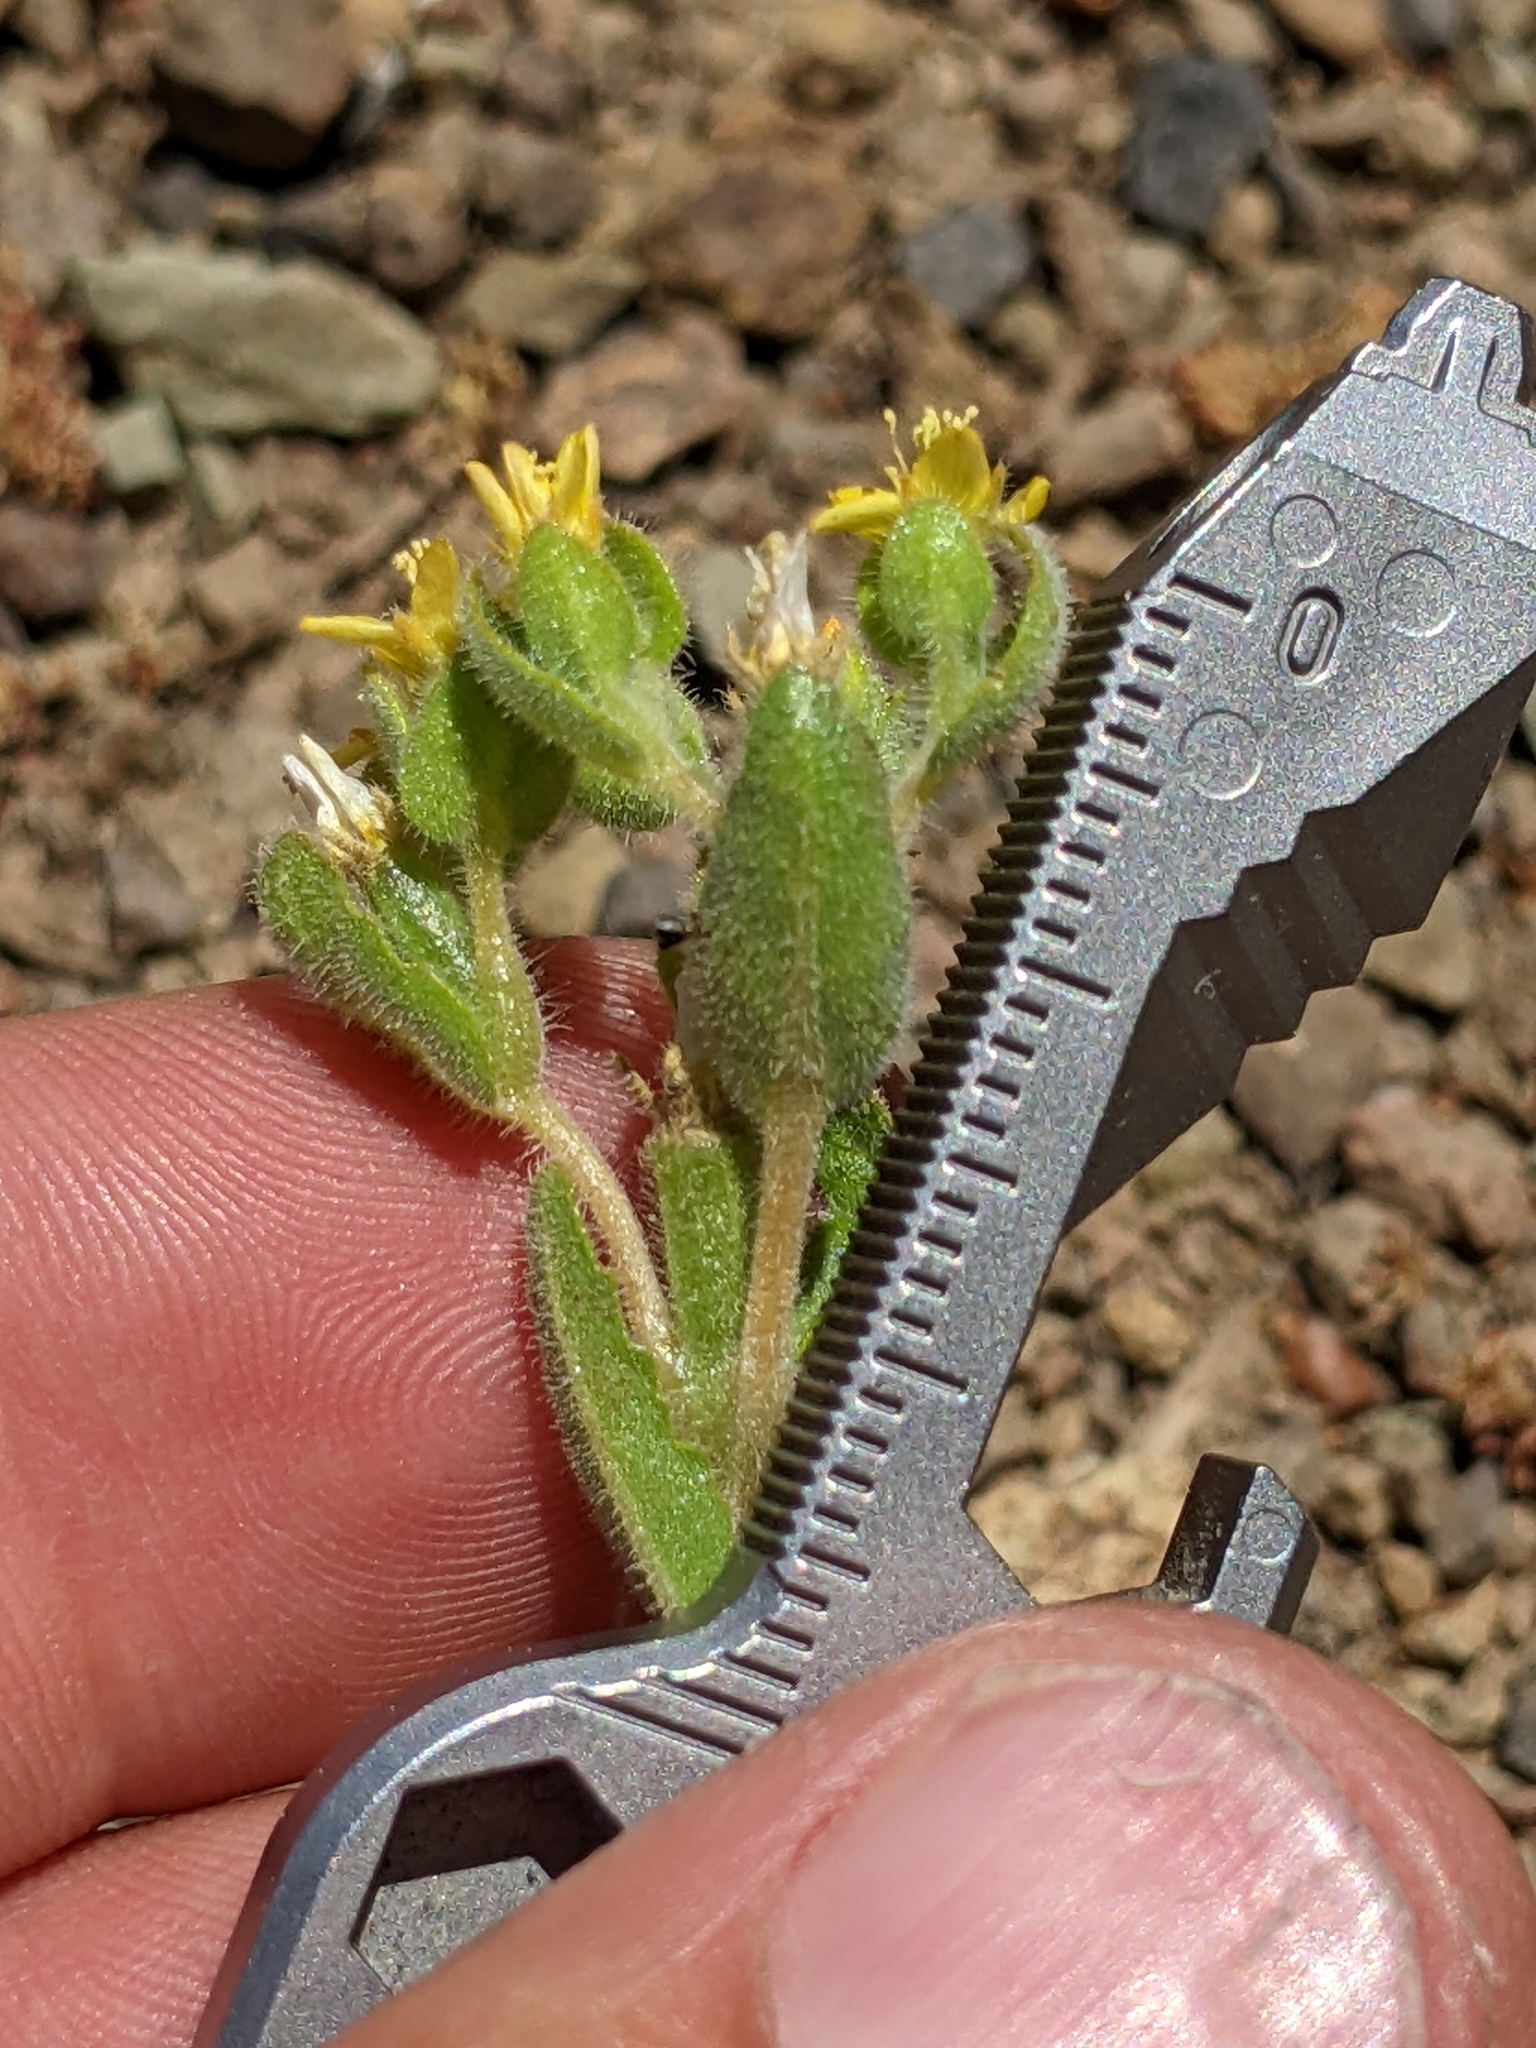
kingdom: Plantae
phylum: Tracheophyta
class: Magnoliopsida
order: Cornales
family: Loasaceae
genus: Mentzelia
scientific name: Mentzelia micrantha
